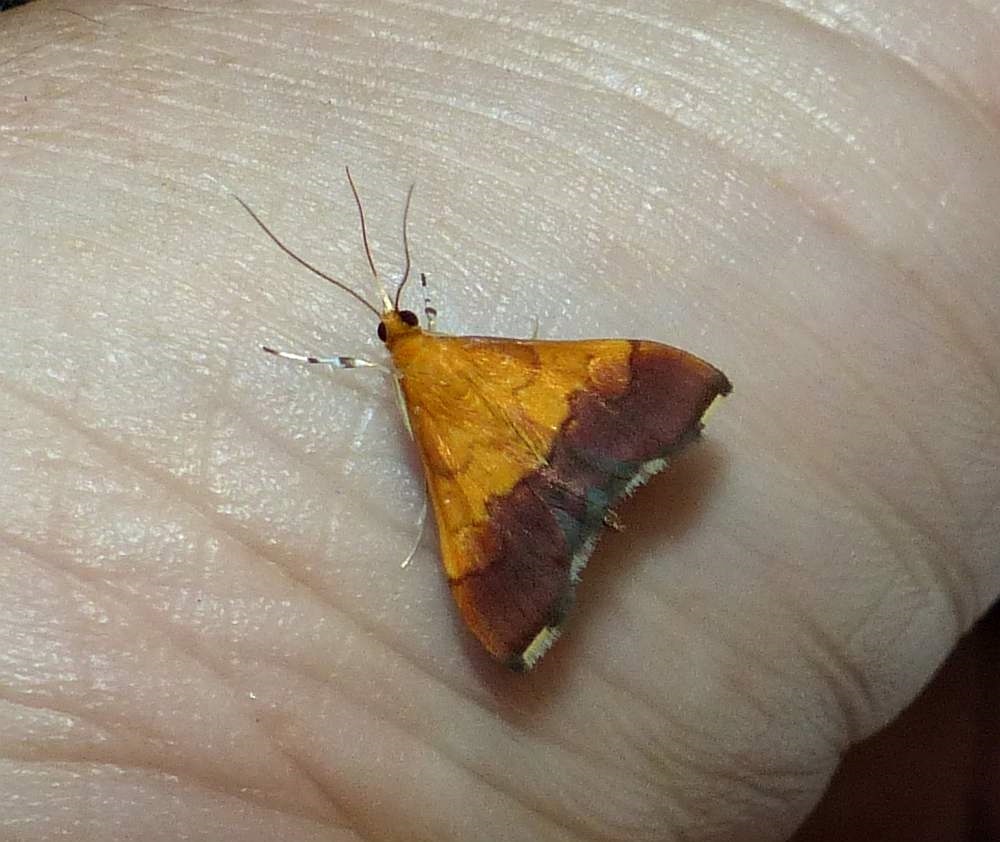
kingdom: Animalia
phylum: Arthropoda
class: Insecta
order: Lepidoptera
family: Crambidae
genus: Pyrausta
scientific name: Pyrausta bicoloralis
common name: Bicolored pyrausta moth
